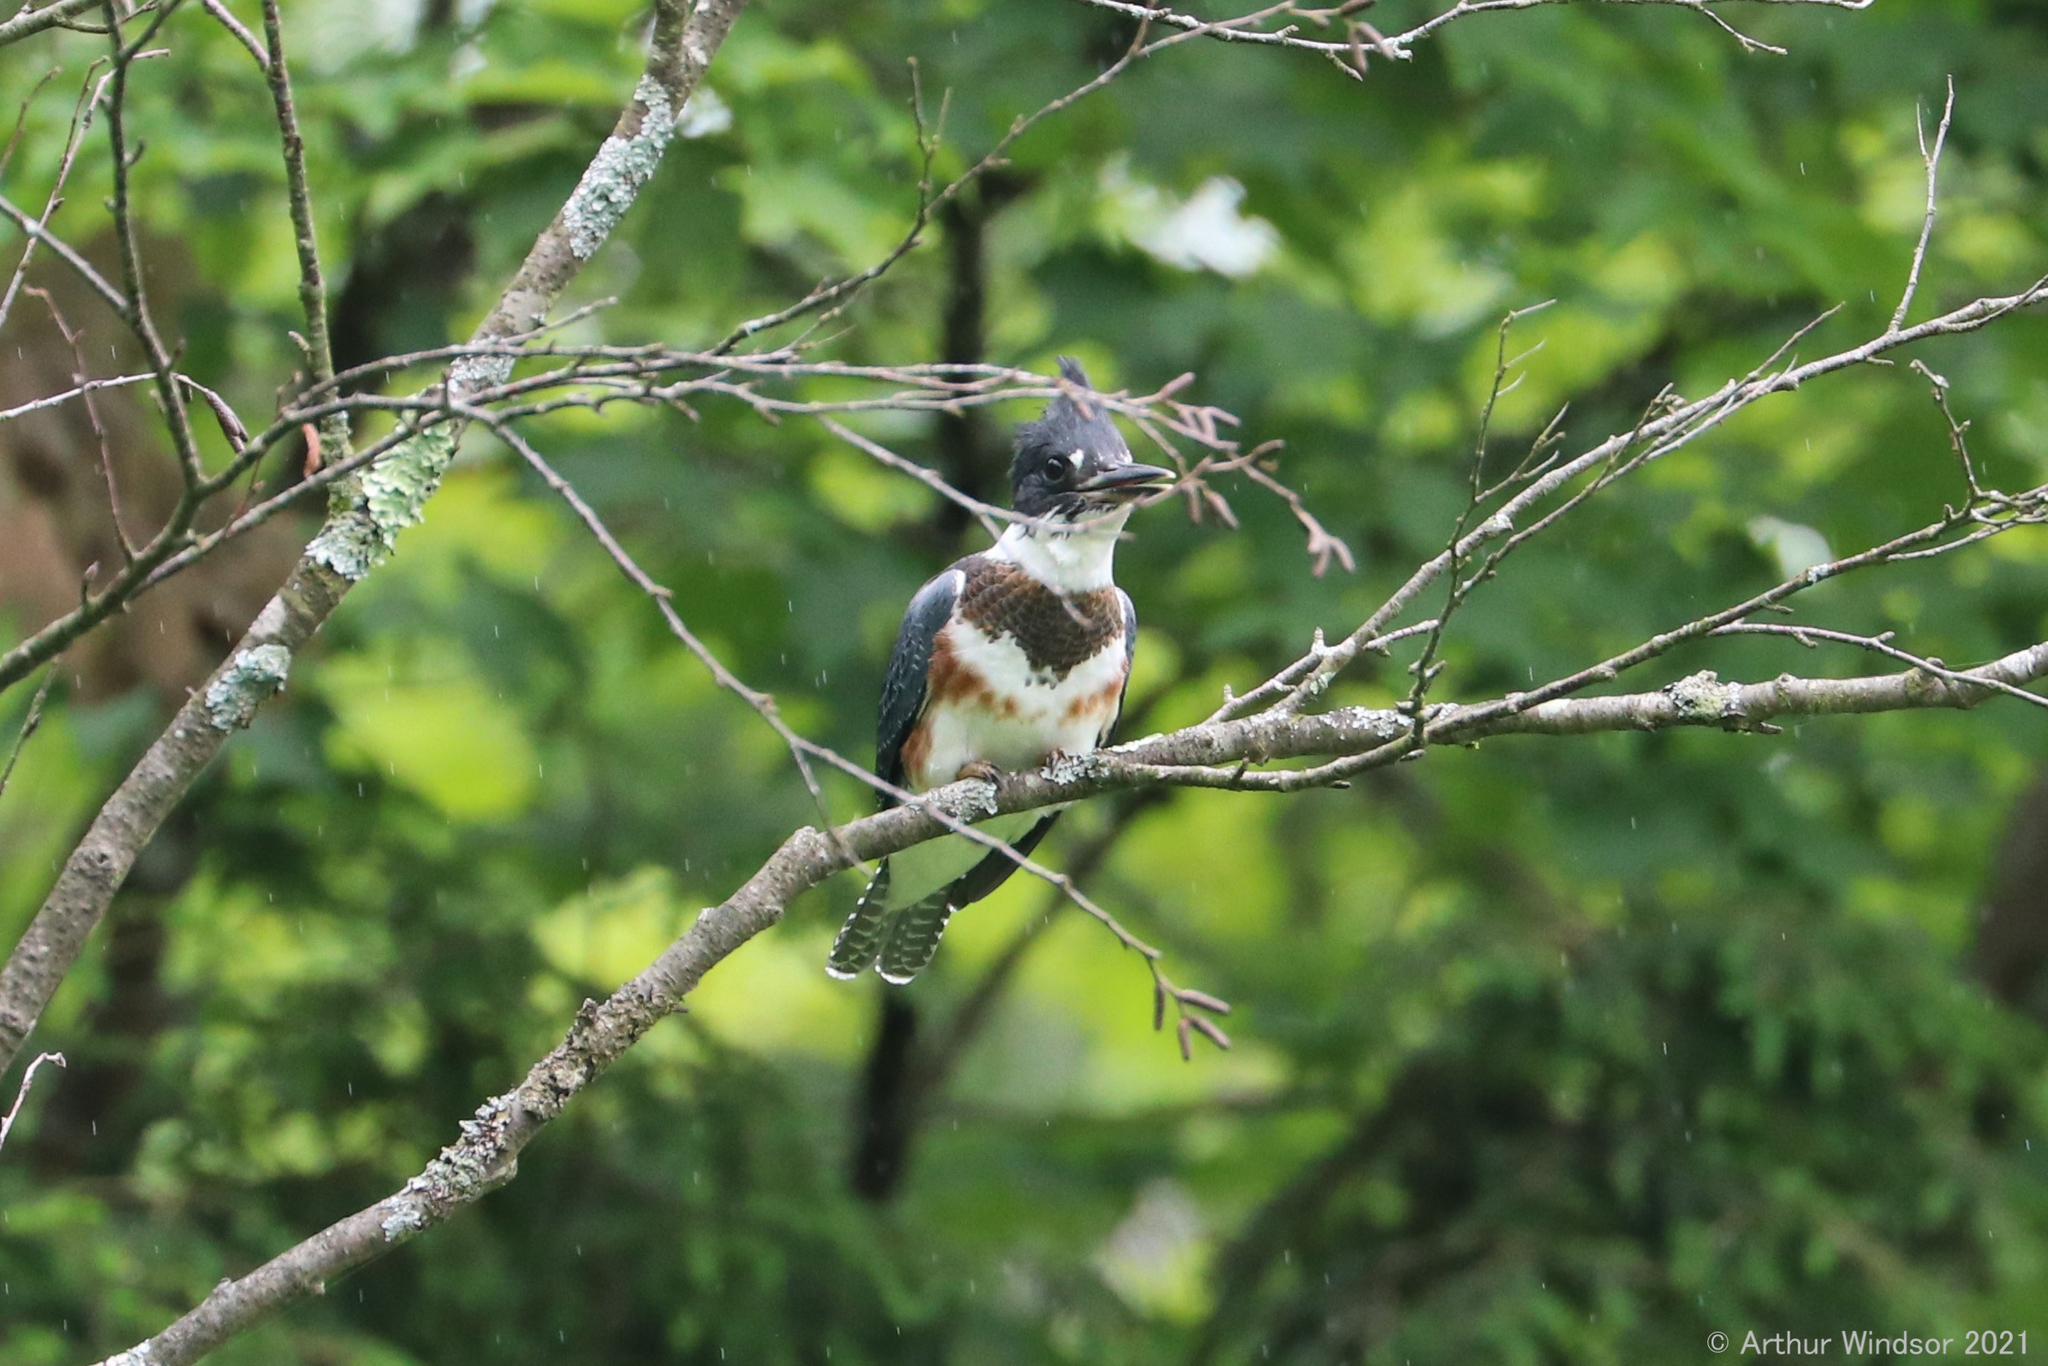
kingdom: Animalia
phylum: Chordata
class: Aves
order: Coraciiformes
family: Alcedinidae
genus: Megaceryle
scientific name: Megaceryle alcyon
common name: Belted kingfisher
